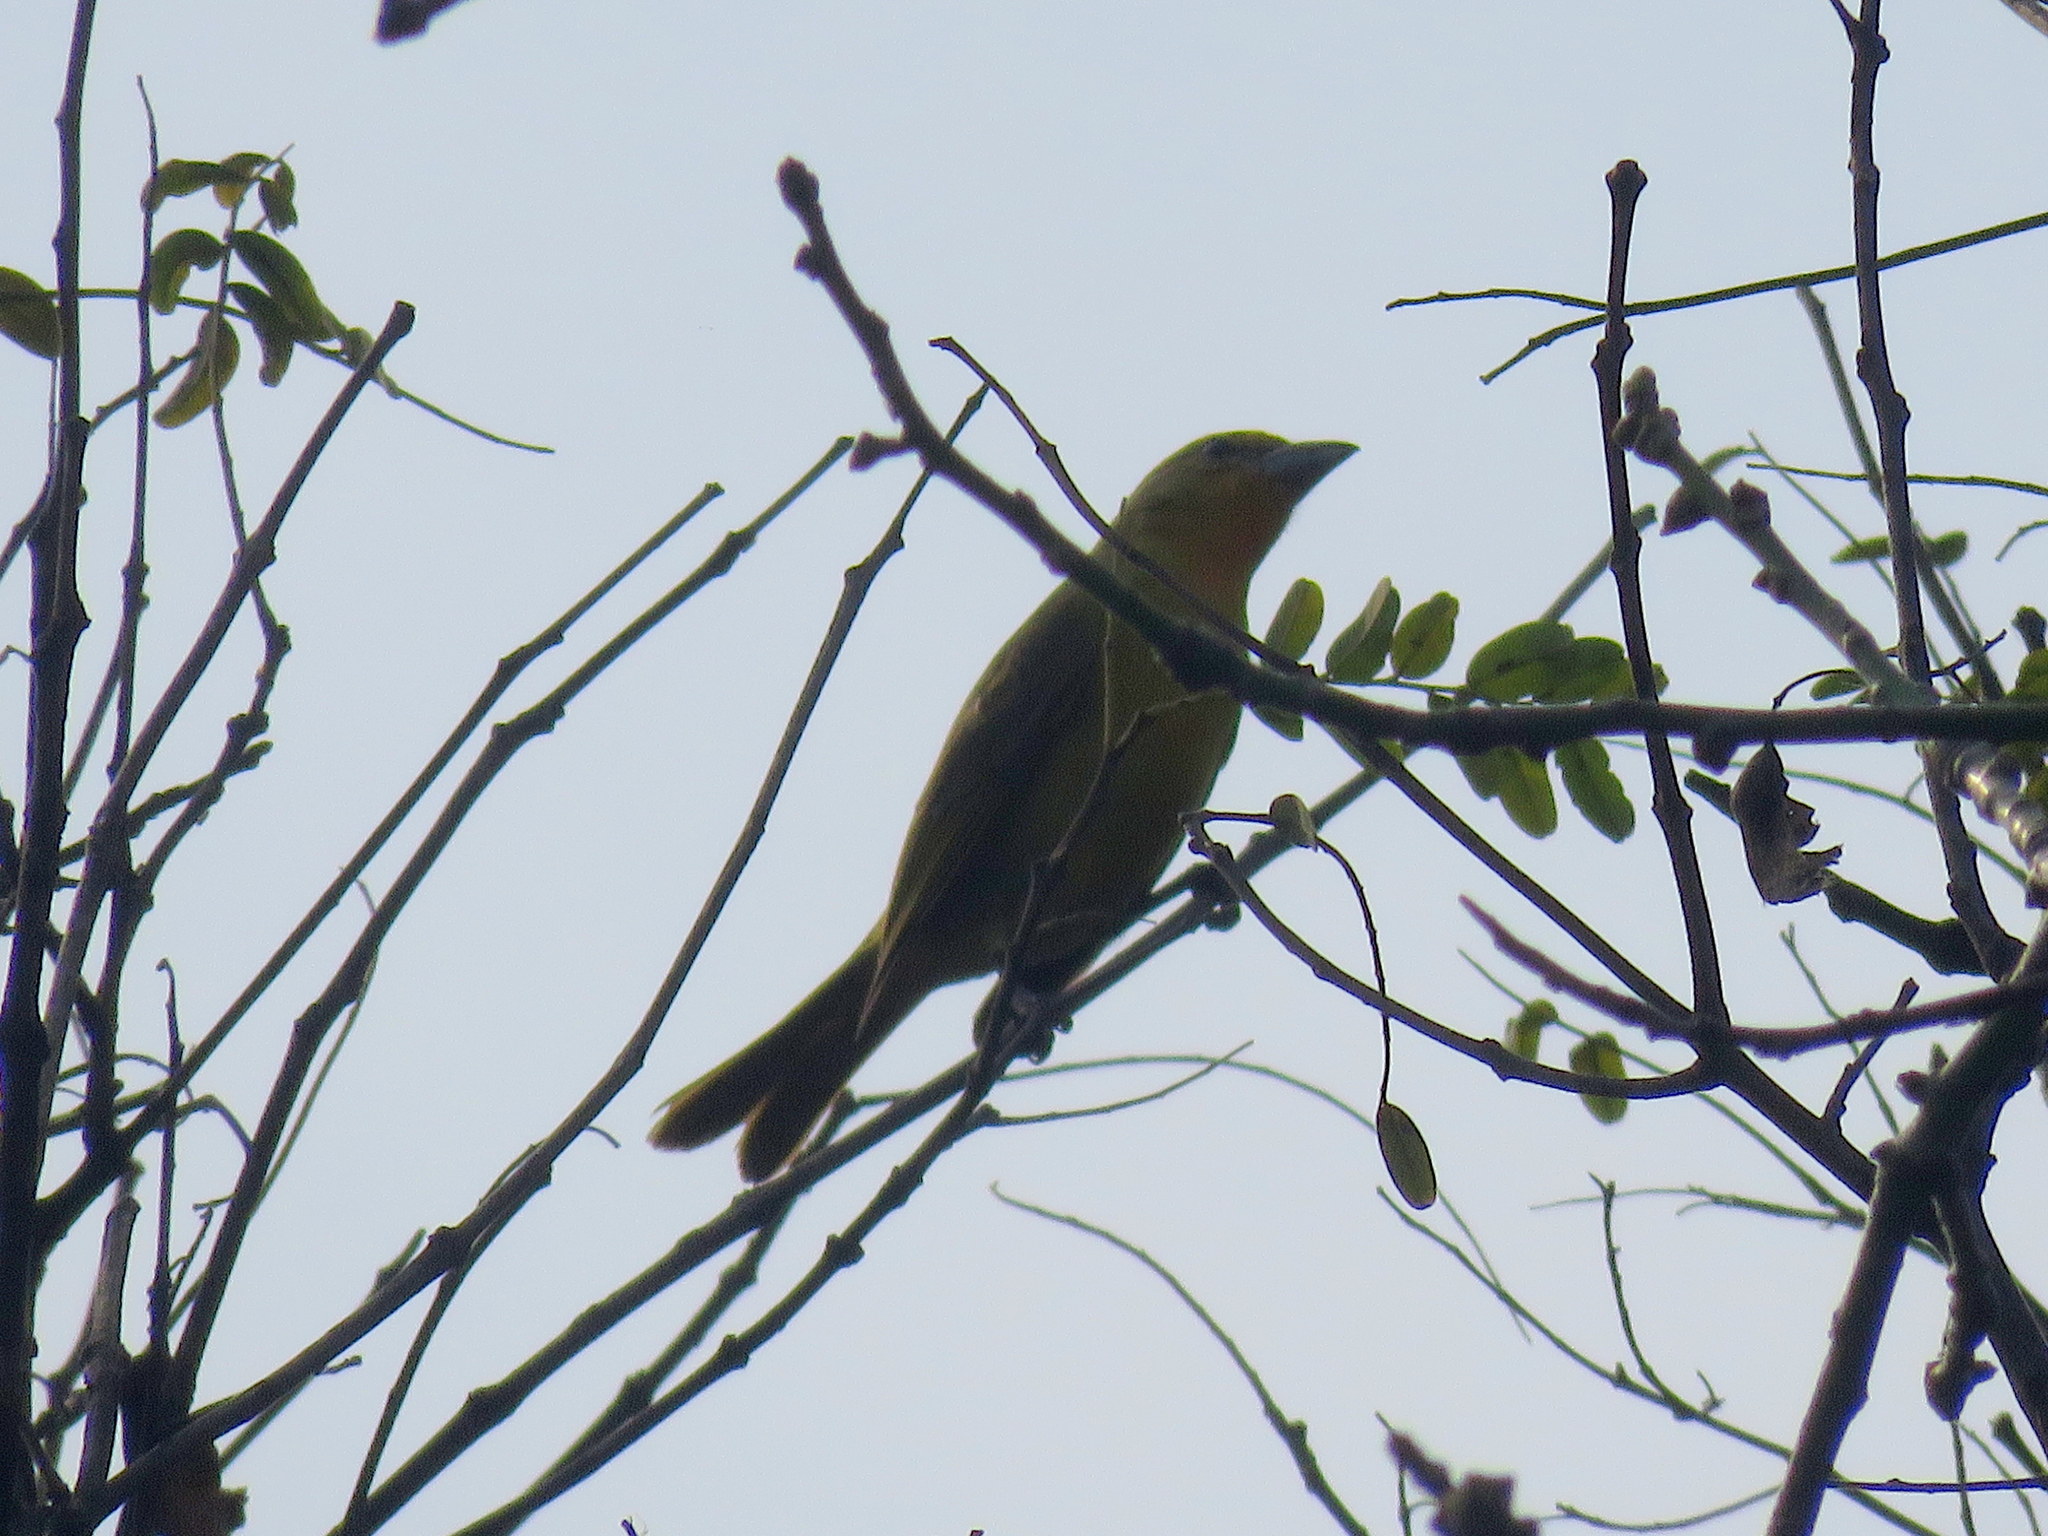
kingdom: Animalia
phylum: Chordata
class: Aves
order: Passeriformes
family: Cardinalidae
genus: Piranga
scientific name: Piranga flava
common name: Red tanager
